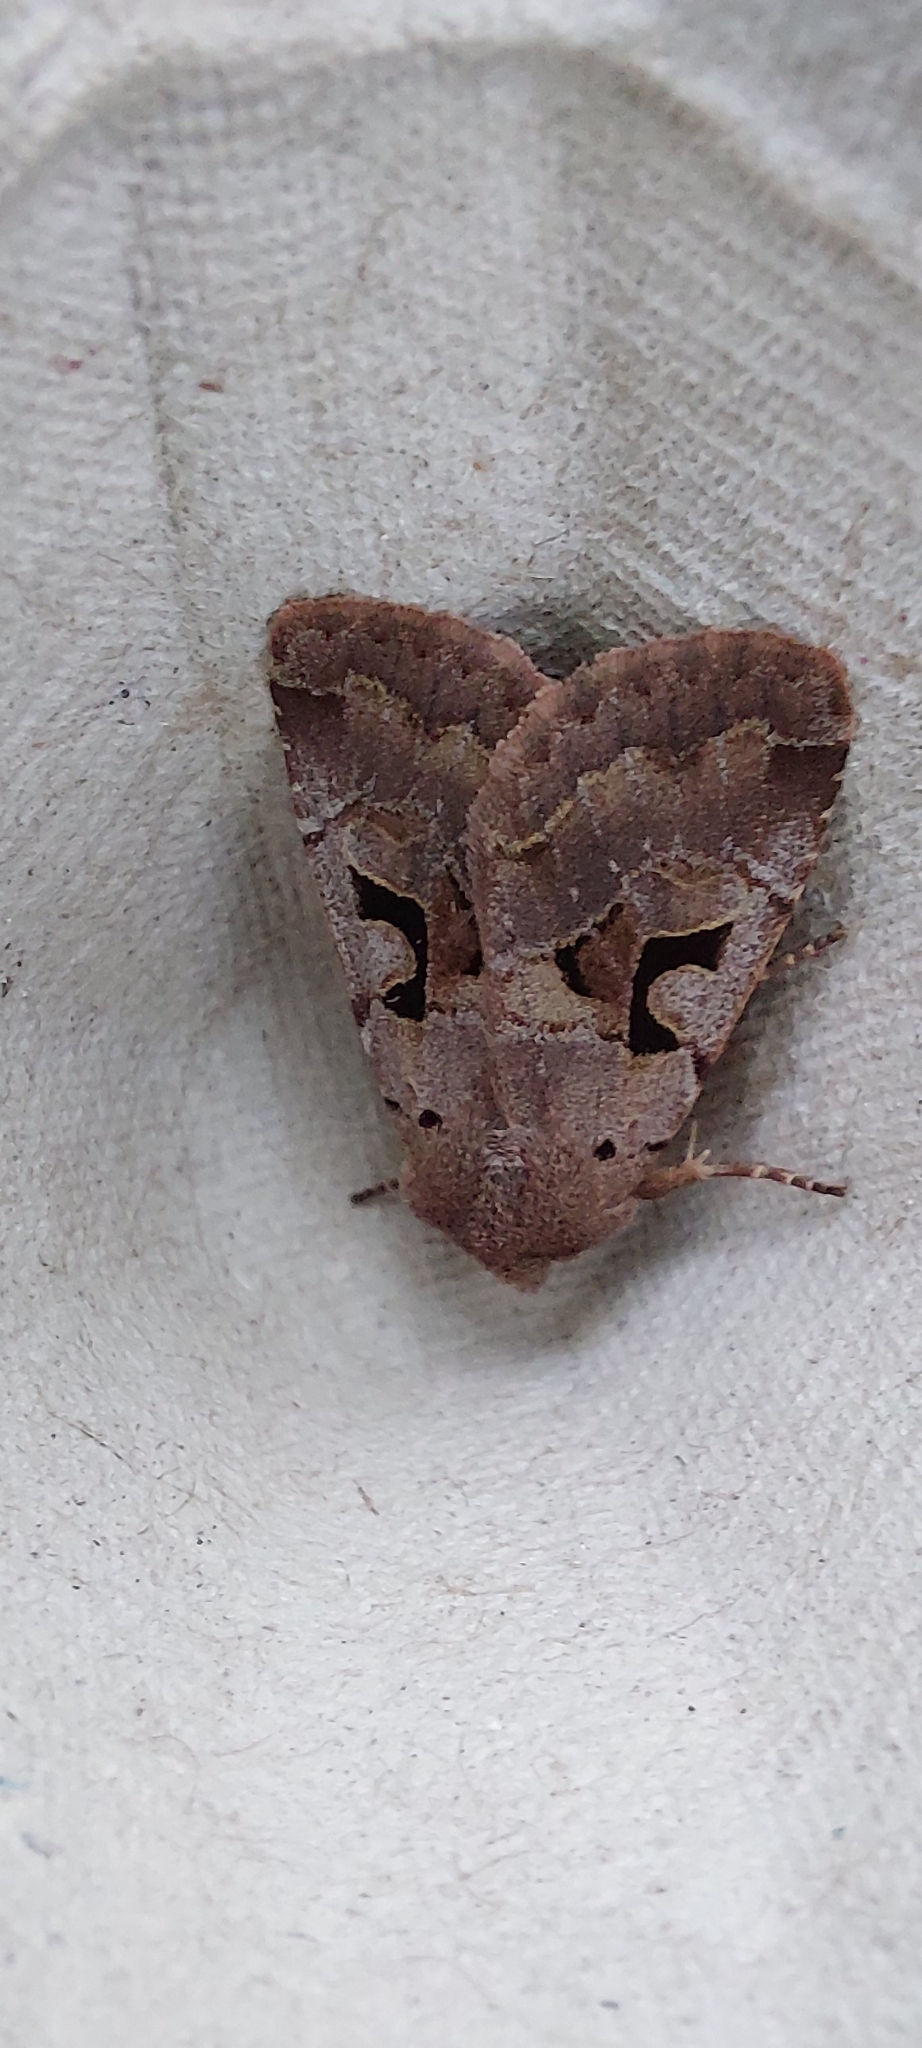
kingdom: Animalia
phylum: Arthropoda
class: Insecta
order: Lepidoptera
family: Noctuidae
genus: Orthosia
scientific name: Orthosia gothica
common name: Hebrew character
